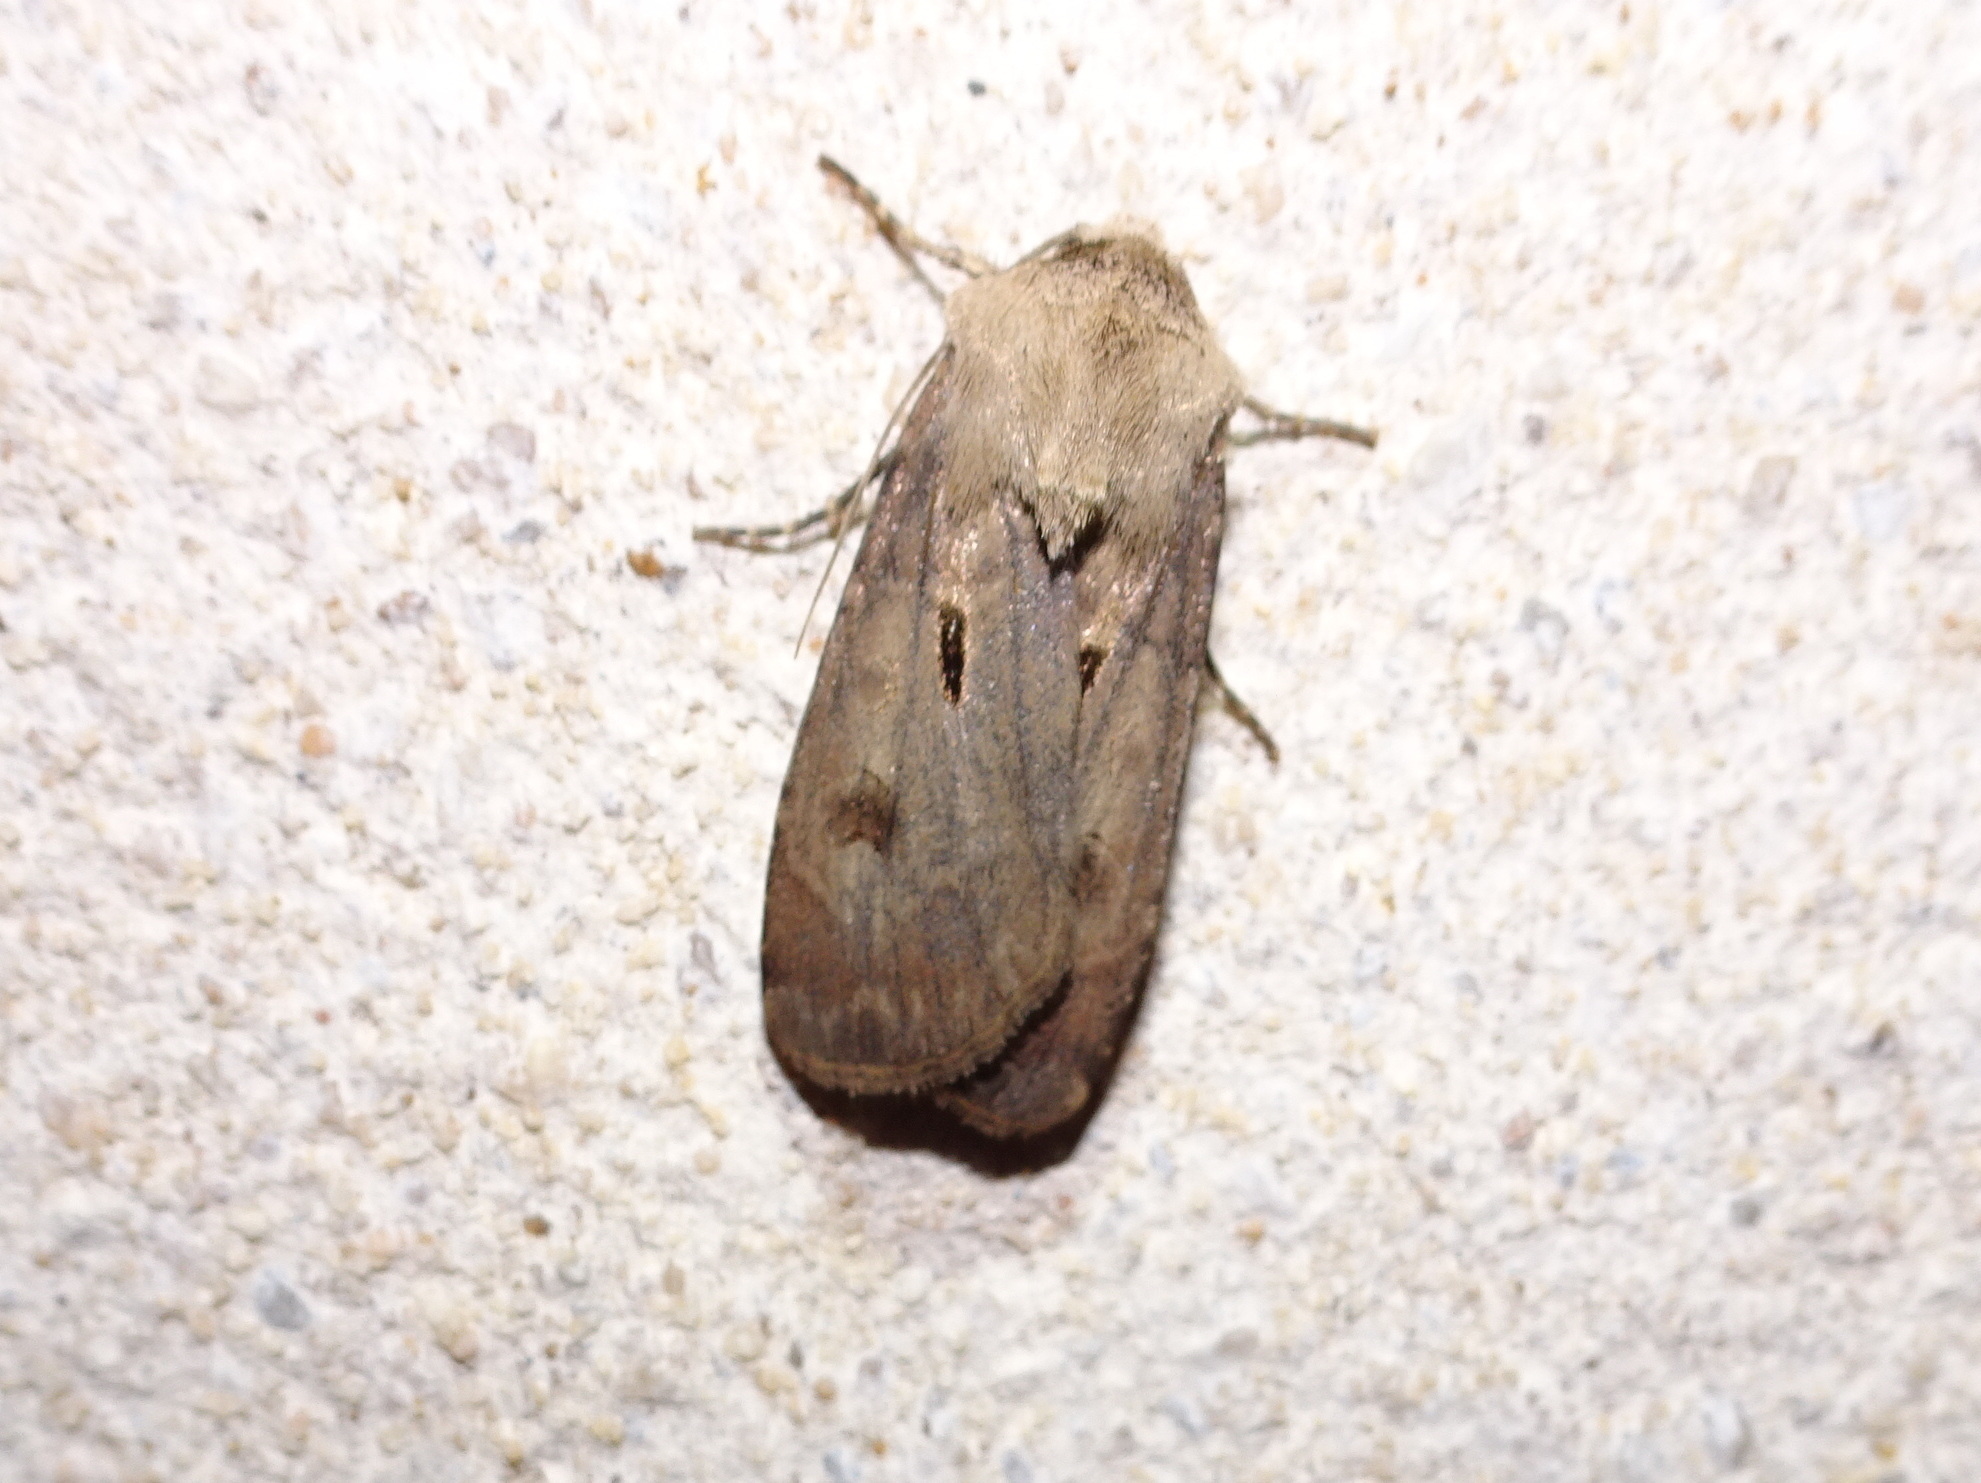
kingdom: Animalia
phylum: Arthropoda
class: Insecta
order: Lepidoptera
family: Noctuidae
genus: Agrotis
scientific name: Agrotis exclamationis
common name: Heart and dart
